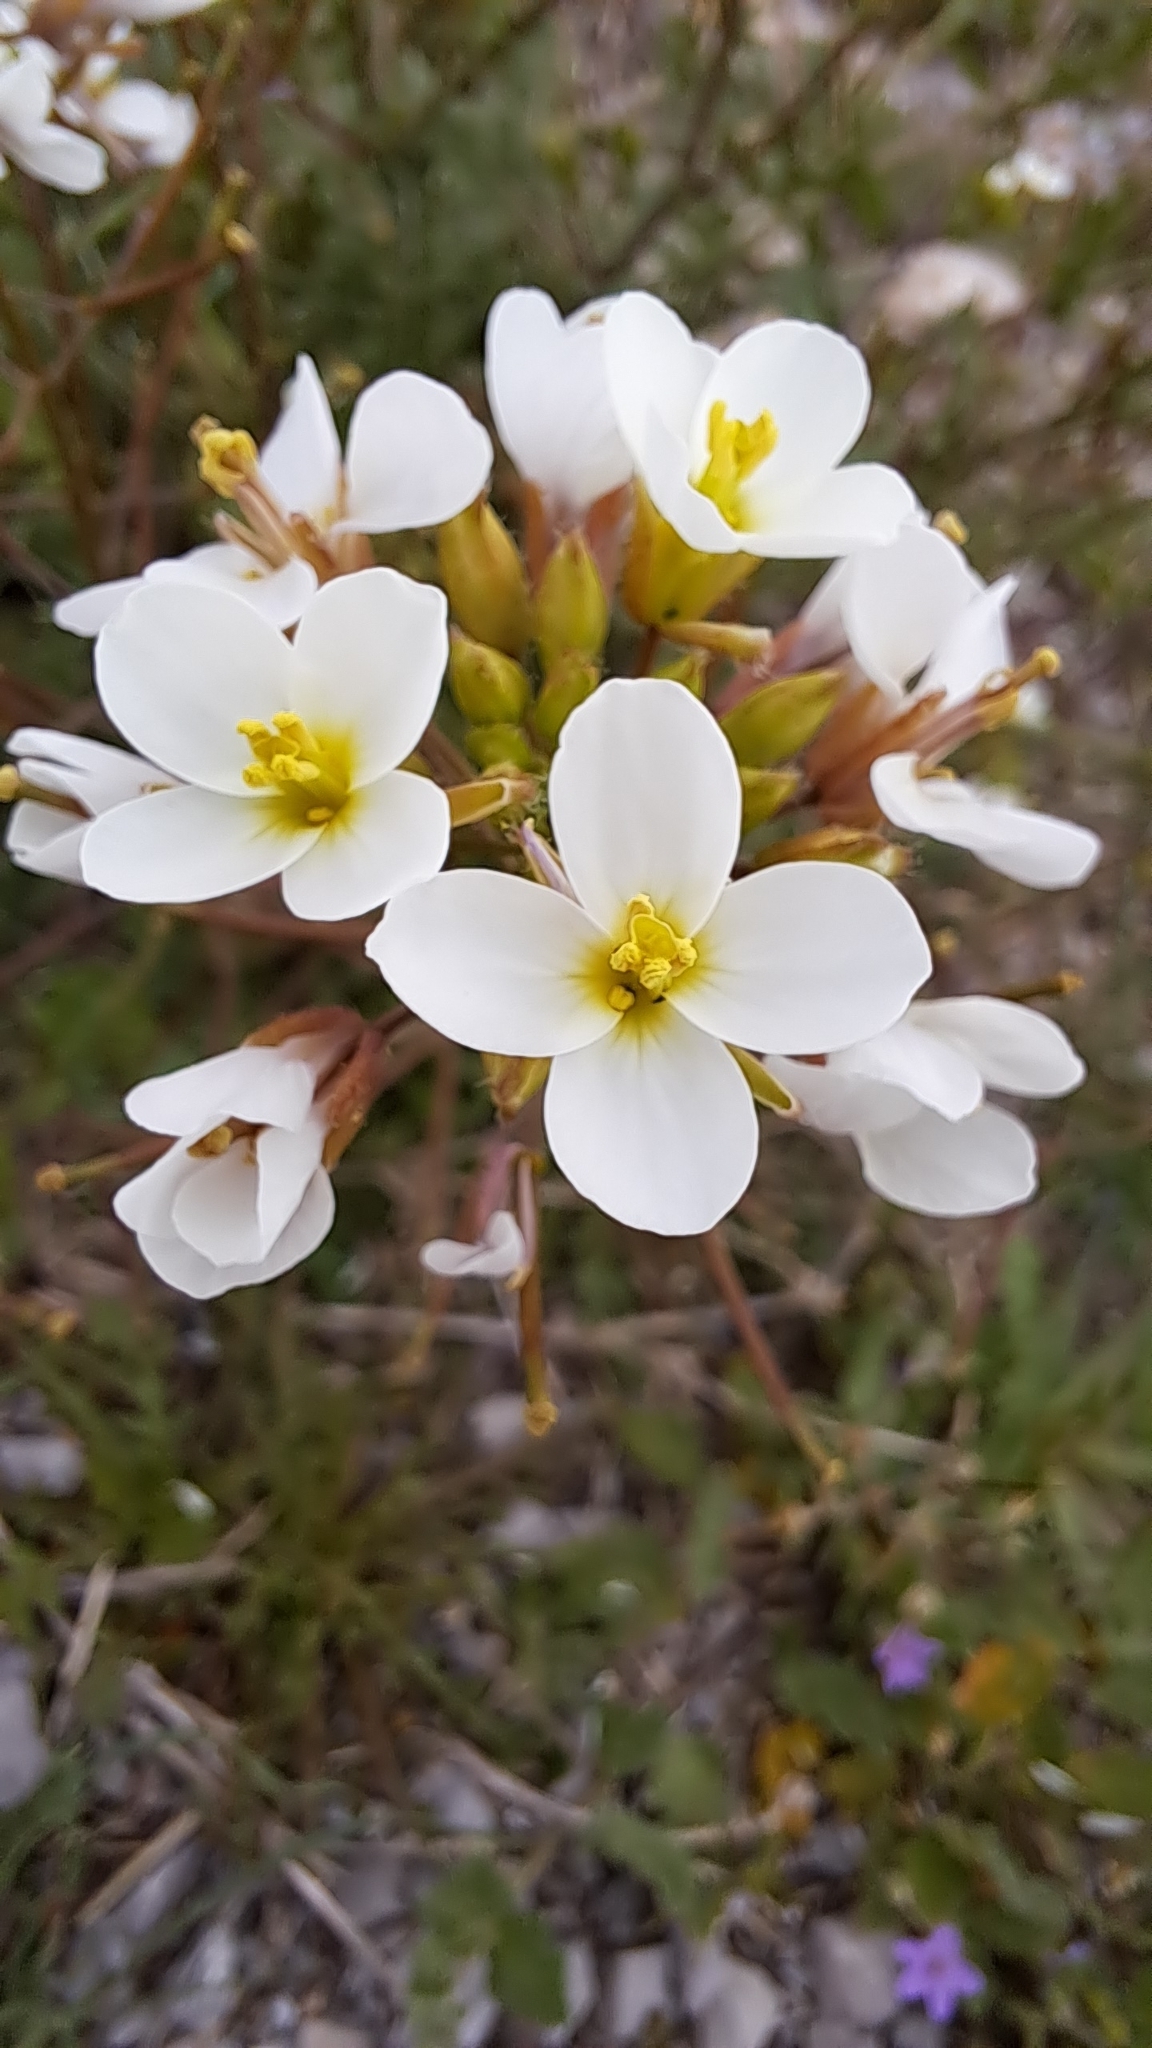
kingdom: Plantae
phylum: Tracheophyta
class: Magnoliopsida
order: Brassicales
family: Brassicaceae
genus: Diplotaxis
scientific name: Diplotaxis erucoides
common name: White rocket
